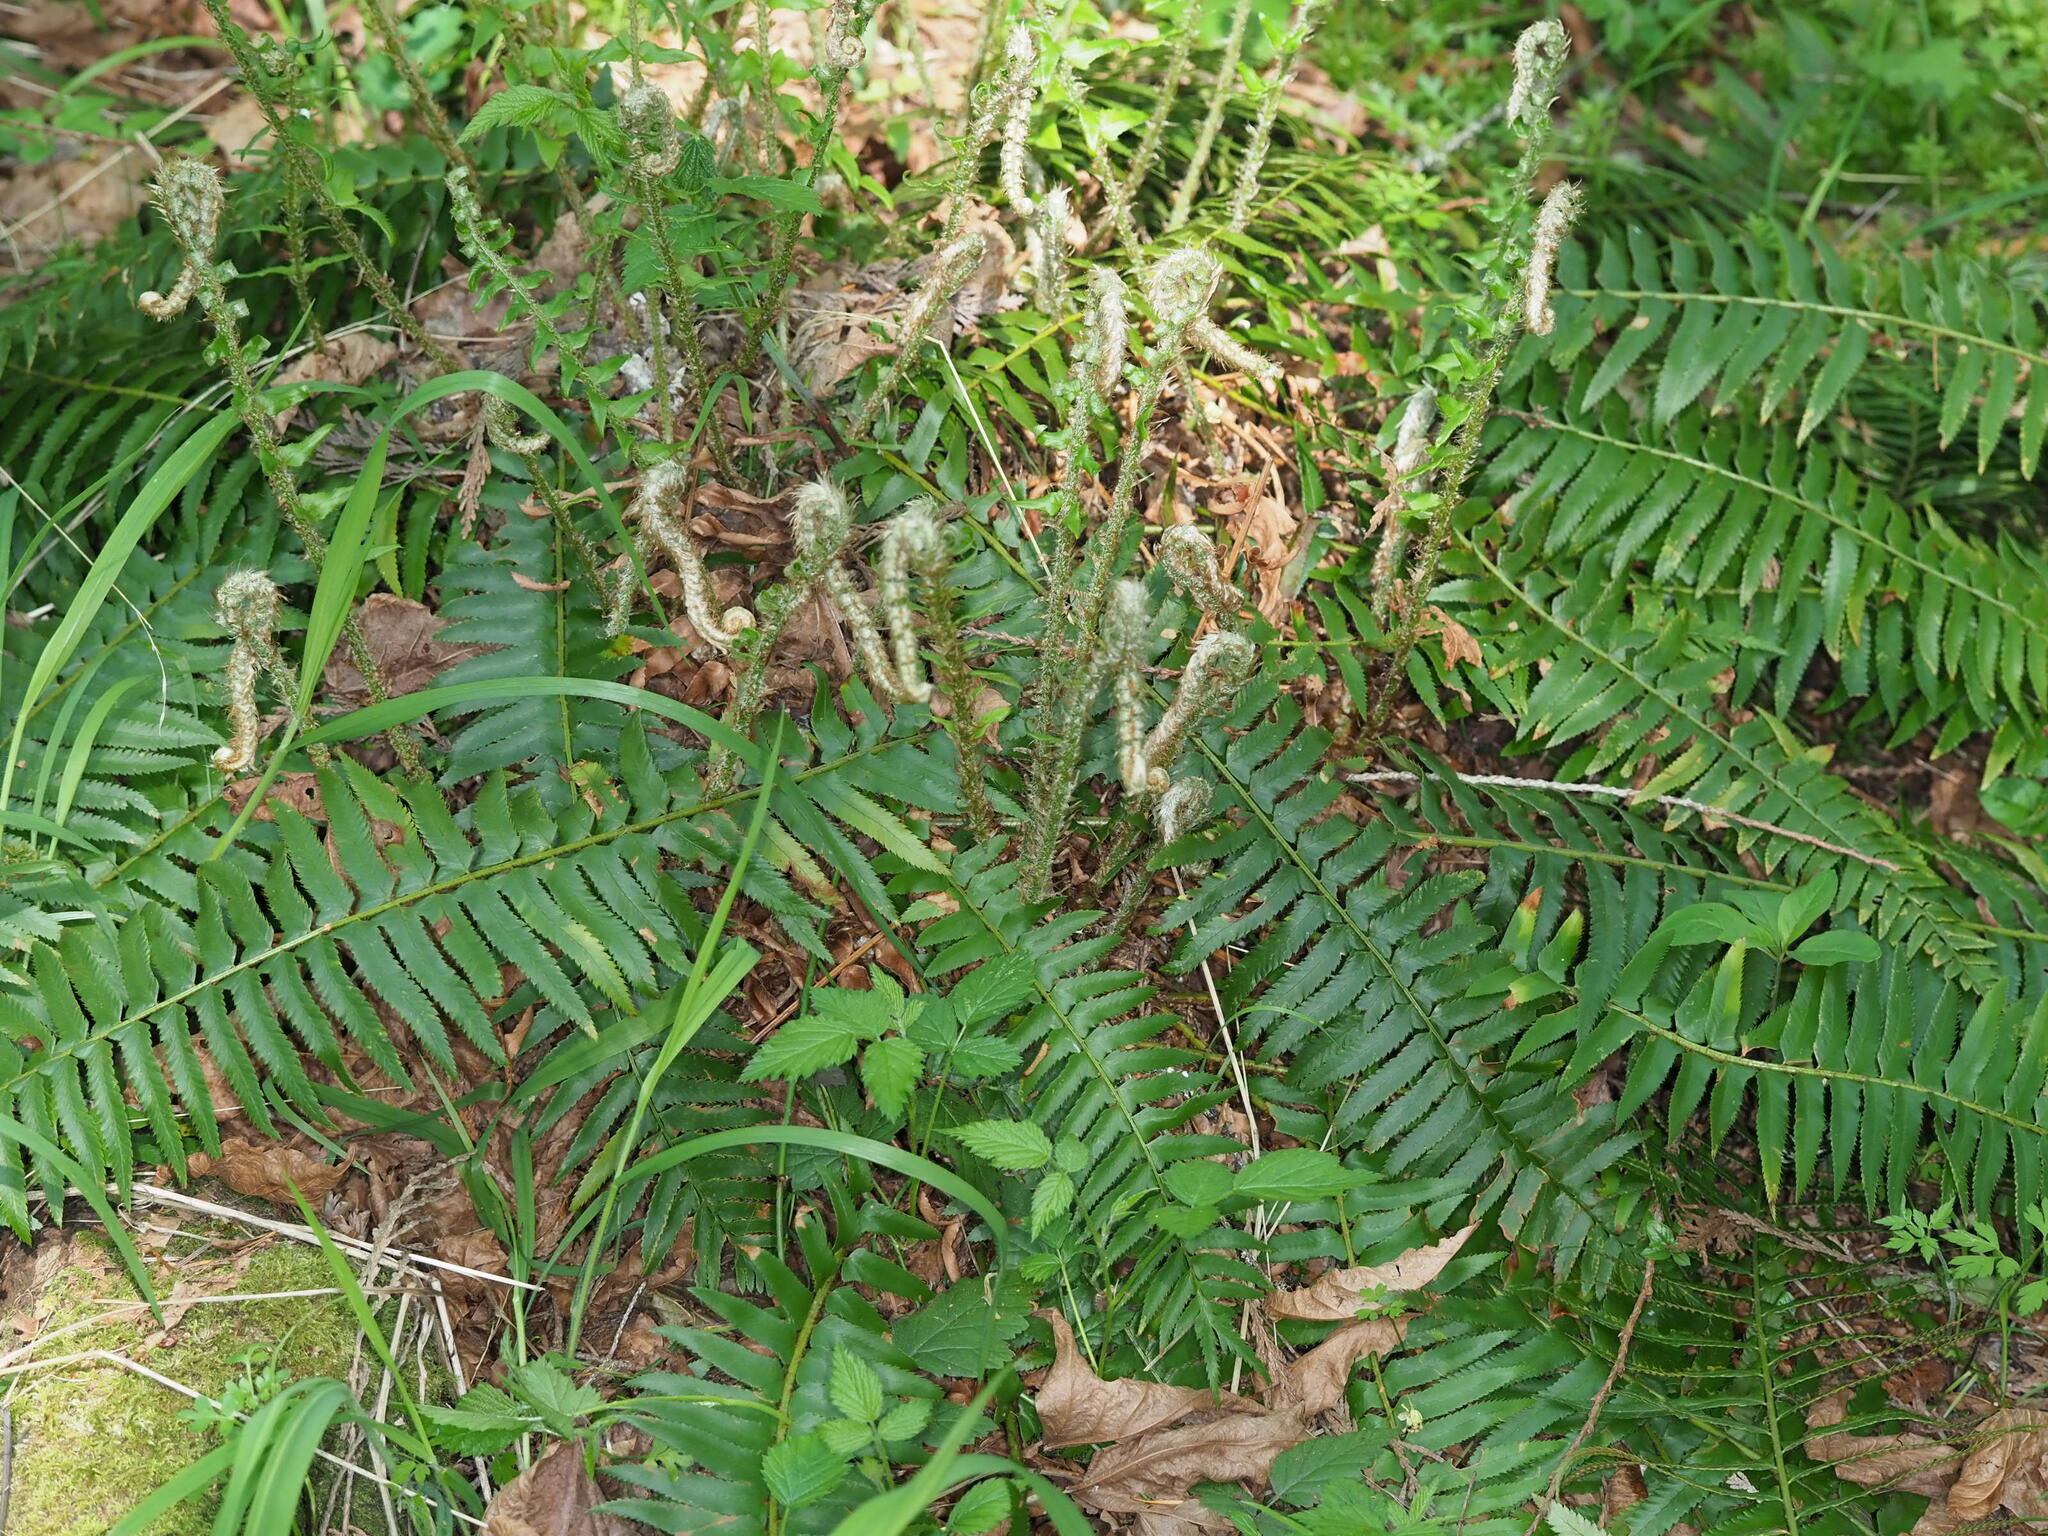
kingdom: Plantae
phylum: Tracheophyta
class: Polypodiopsida
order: Polypodiales
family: Dryopteridaceae
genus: Polystichum
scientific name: Polystichum munitum
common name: Western sword-fern
